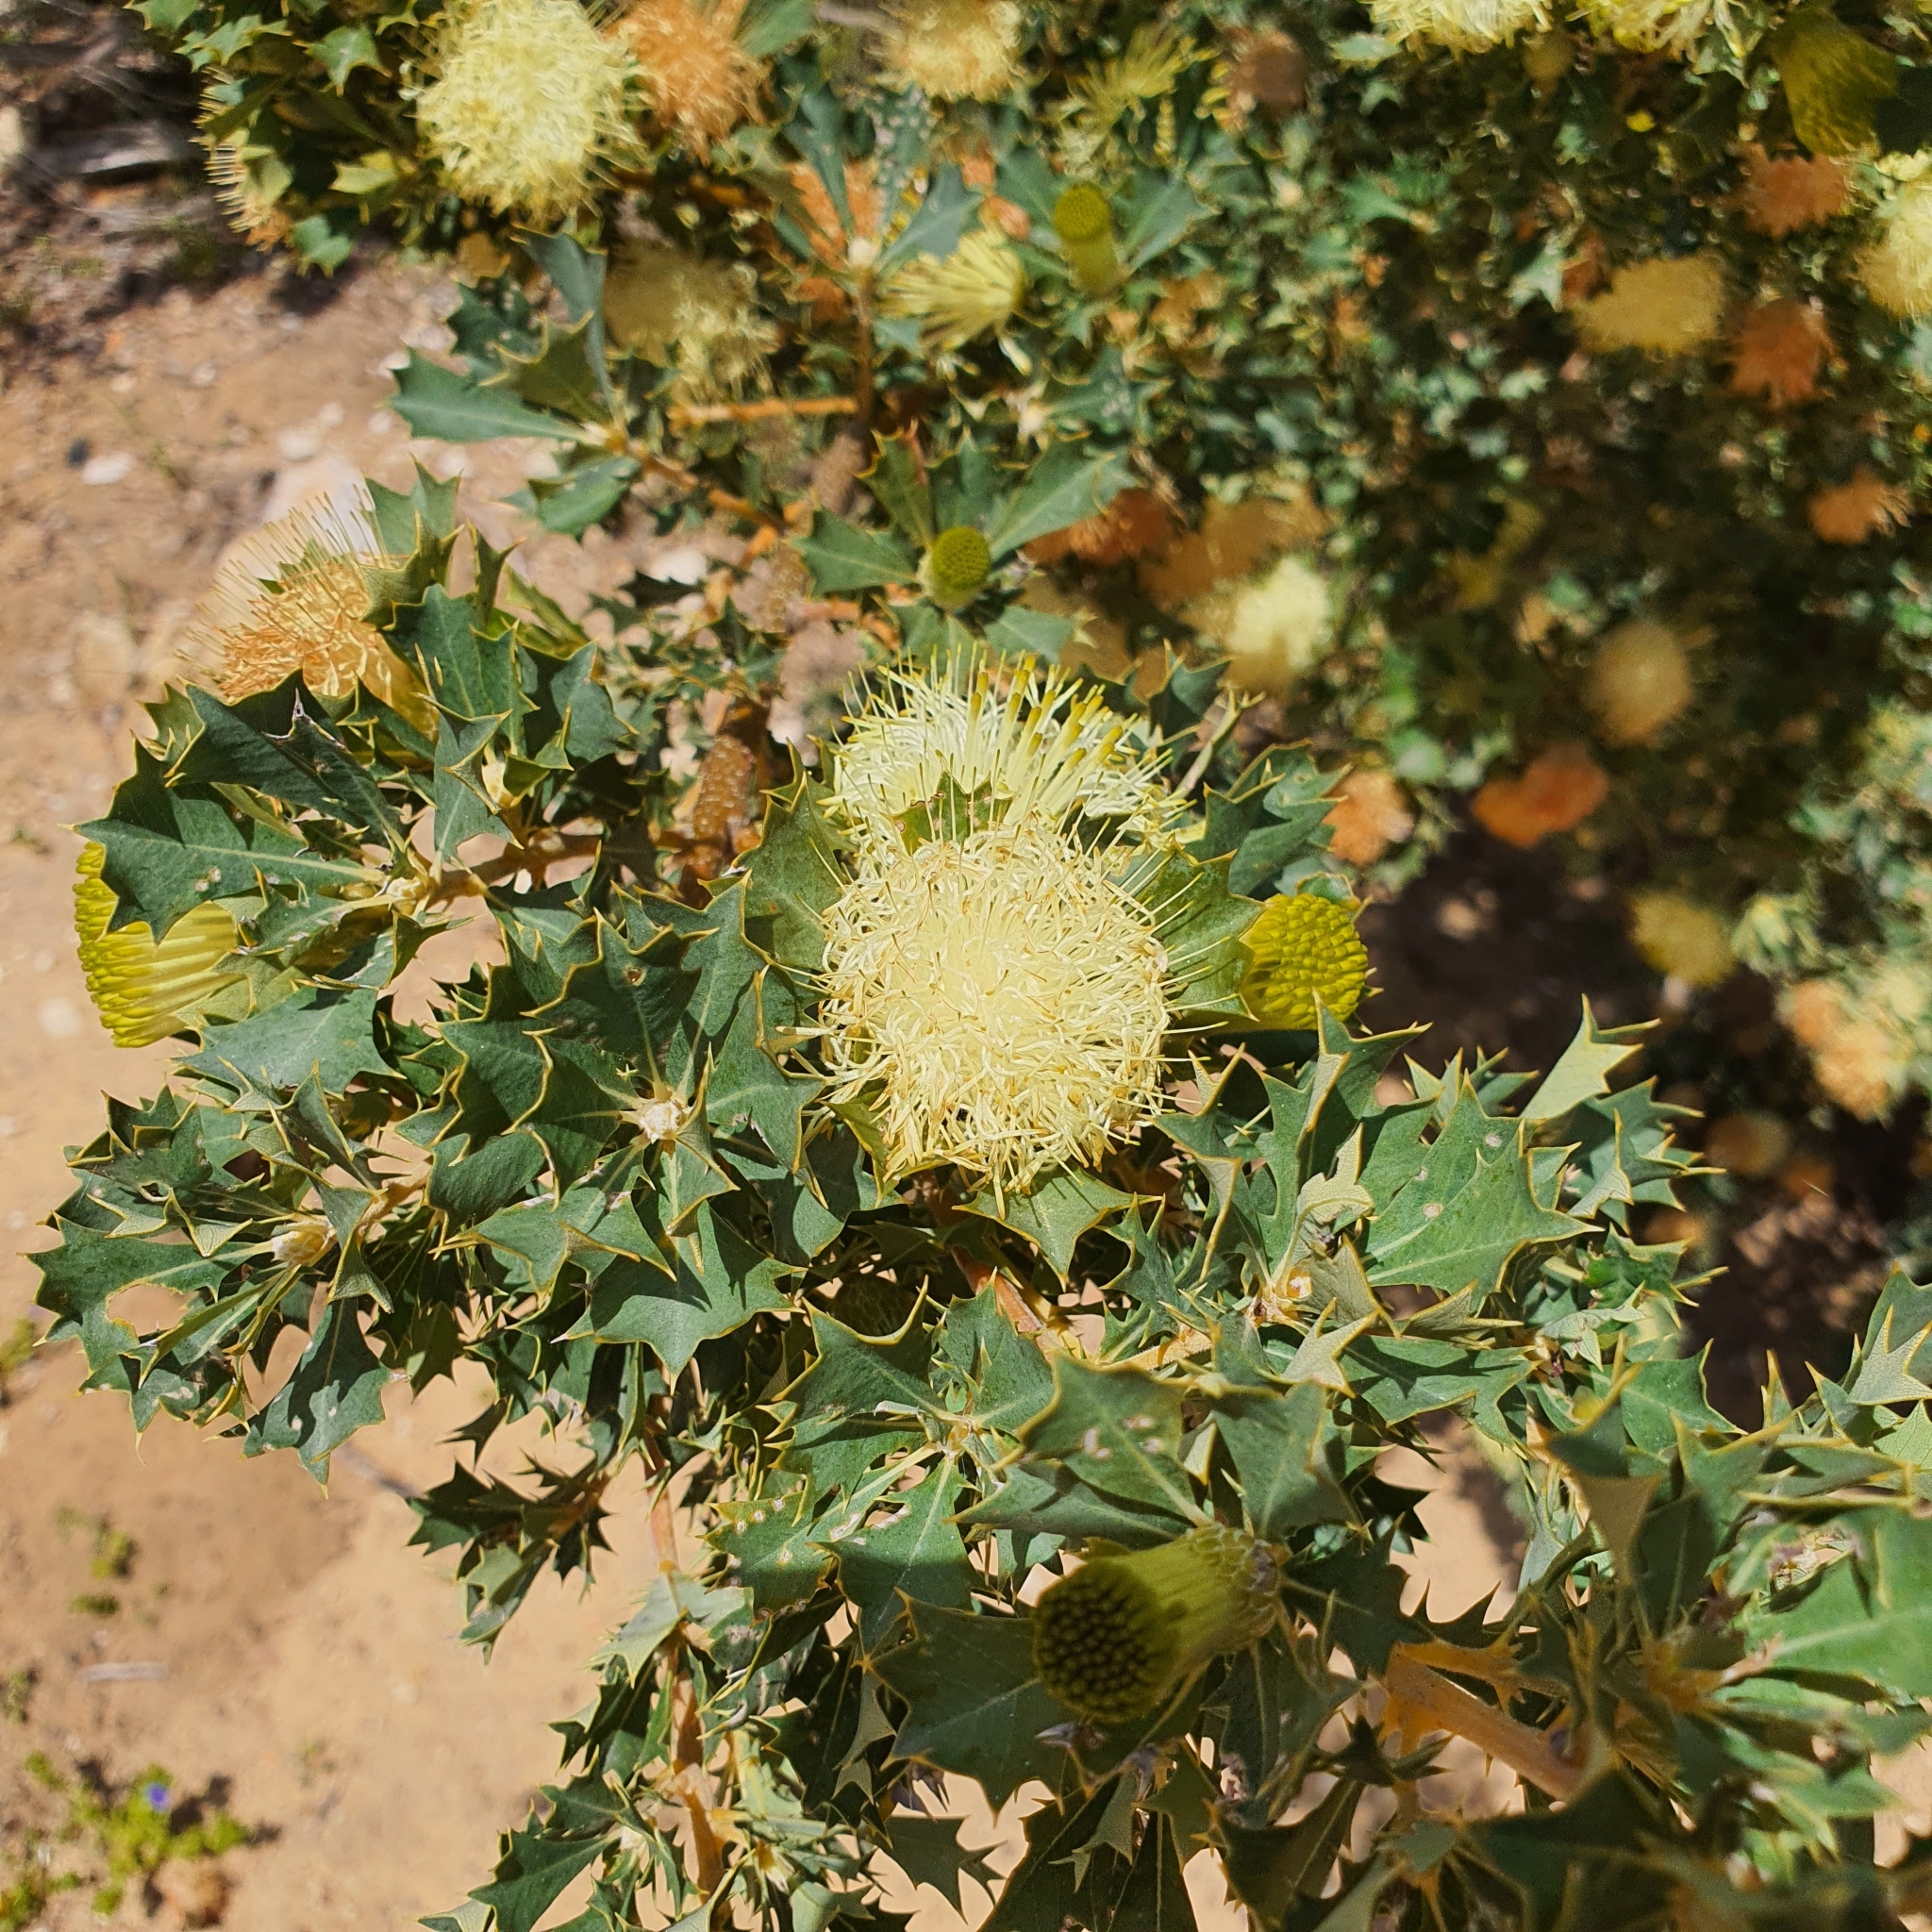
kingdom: Plantae
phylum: Tracheophyta
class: Magnoliopsida
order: Proteales
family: Proteaceae
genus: Banksia
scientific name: Banksia sessilis
